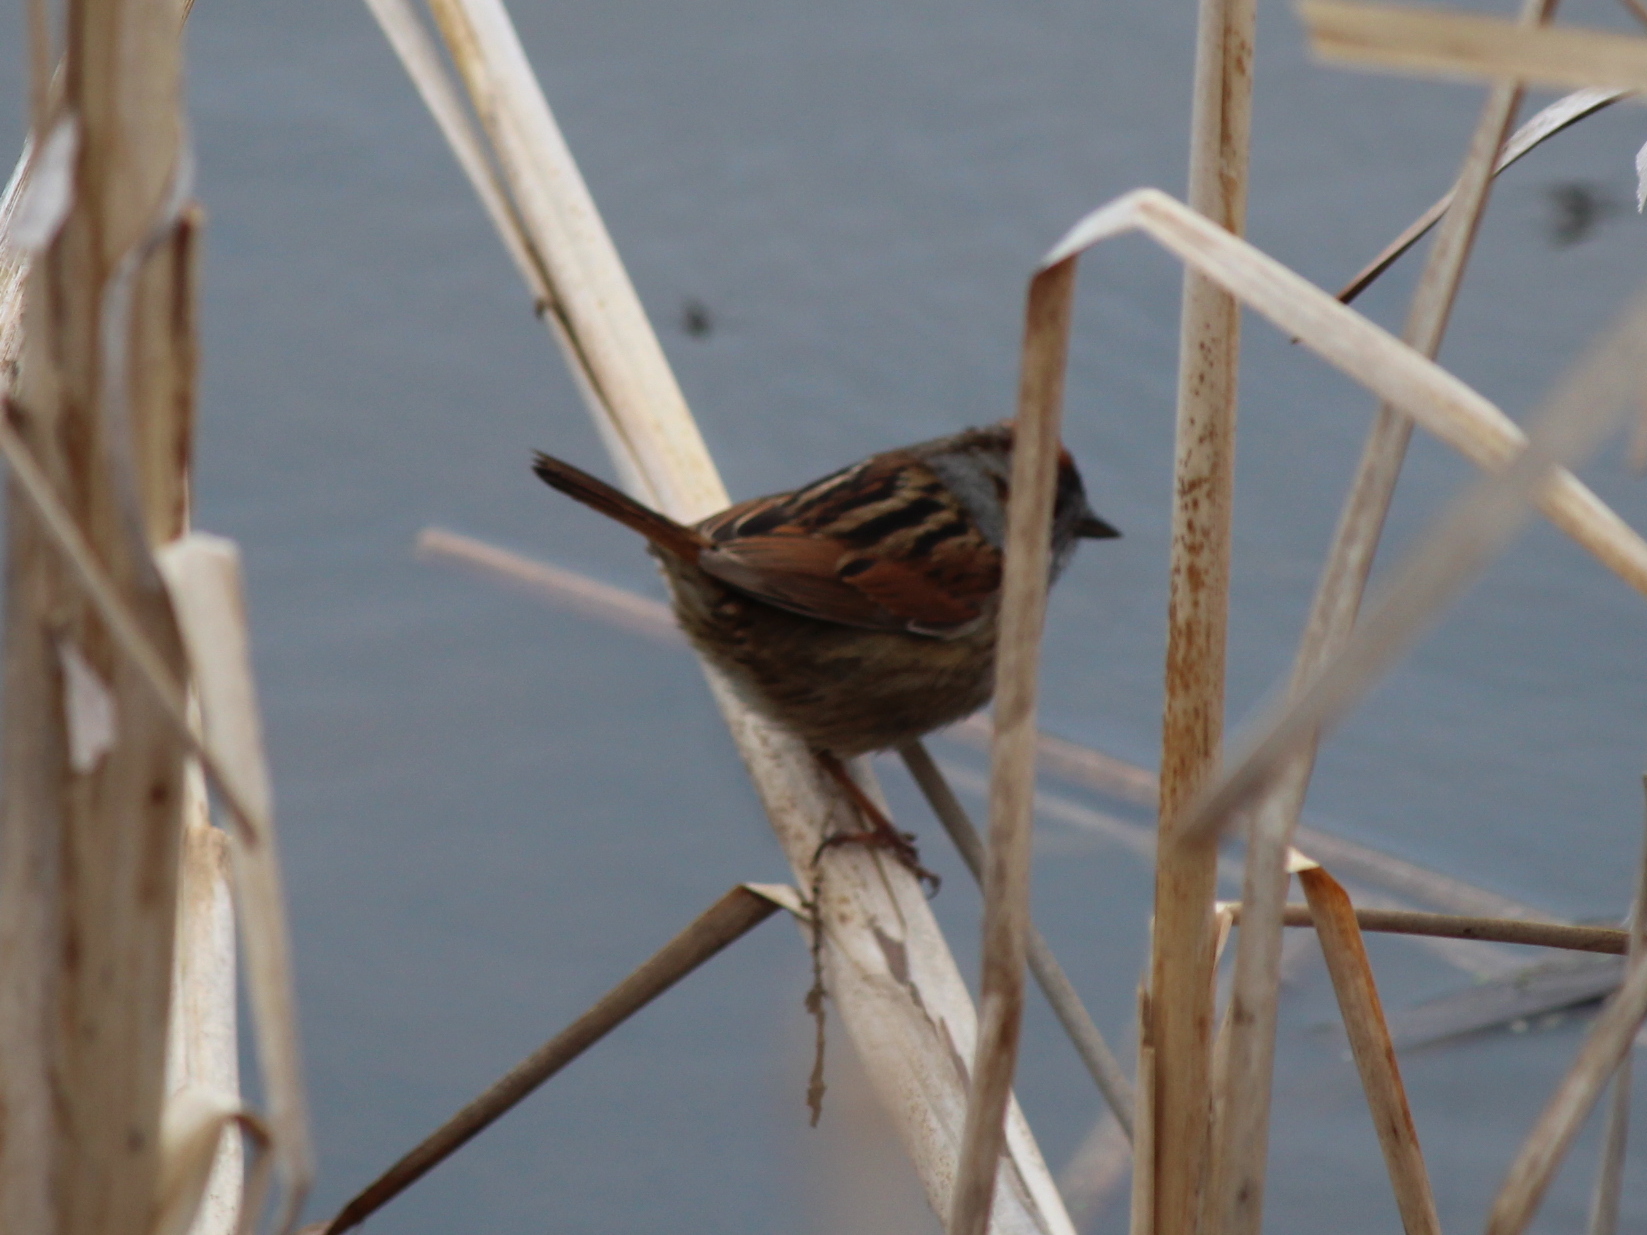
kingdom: Animalia
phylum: Chordata
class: Aves
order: Passeriformes
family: Passerellidae
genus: Melospiza
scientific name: Melospiza georgiana
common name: Swamp sparrow
